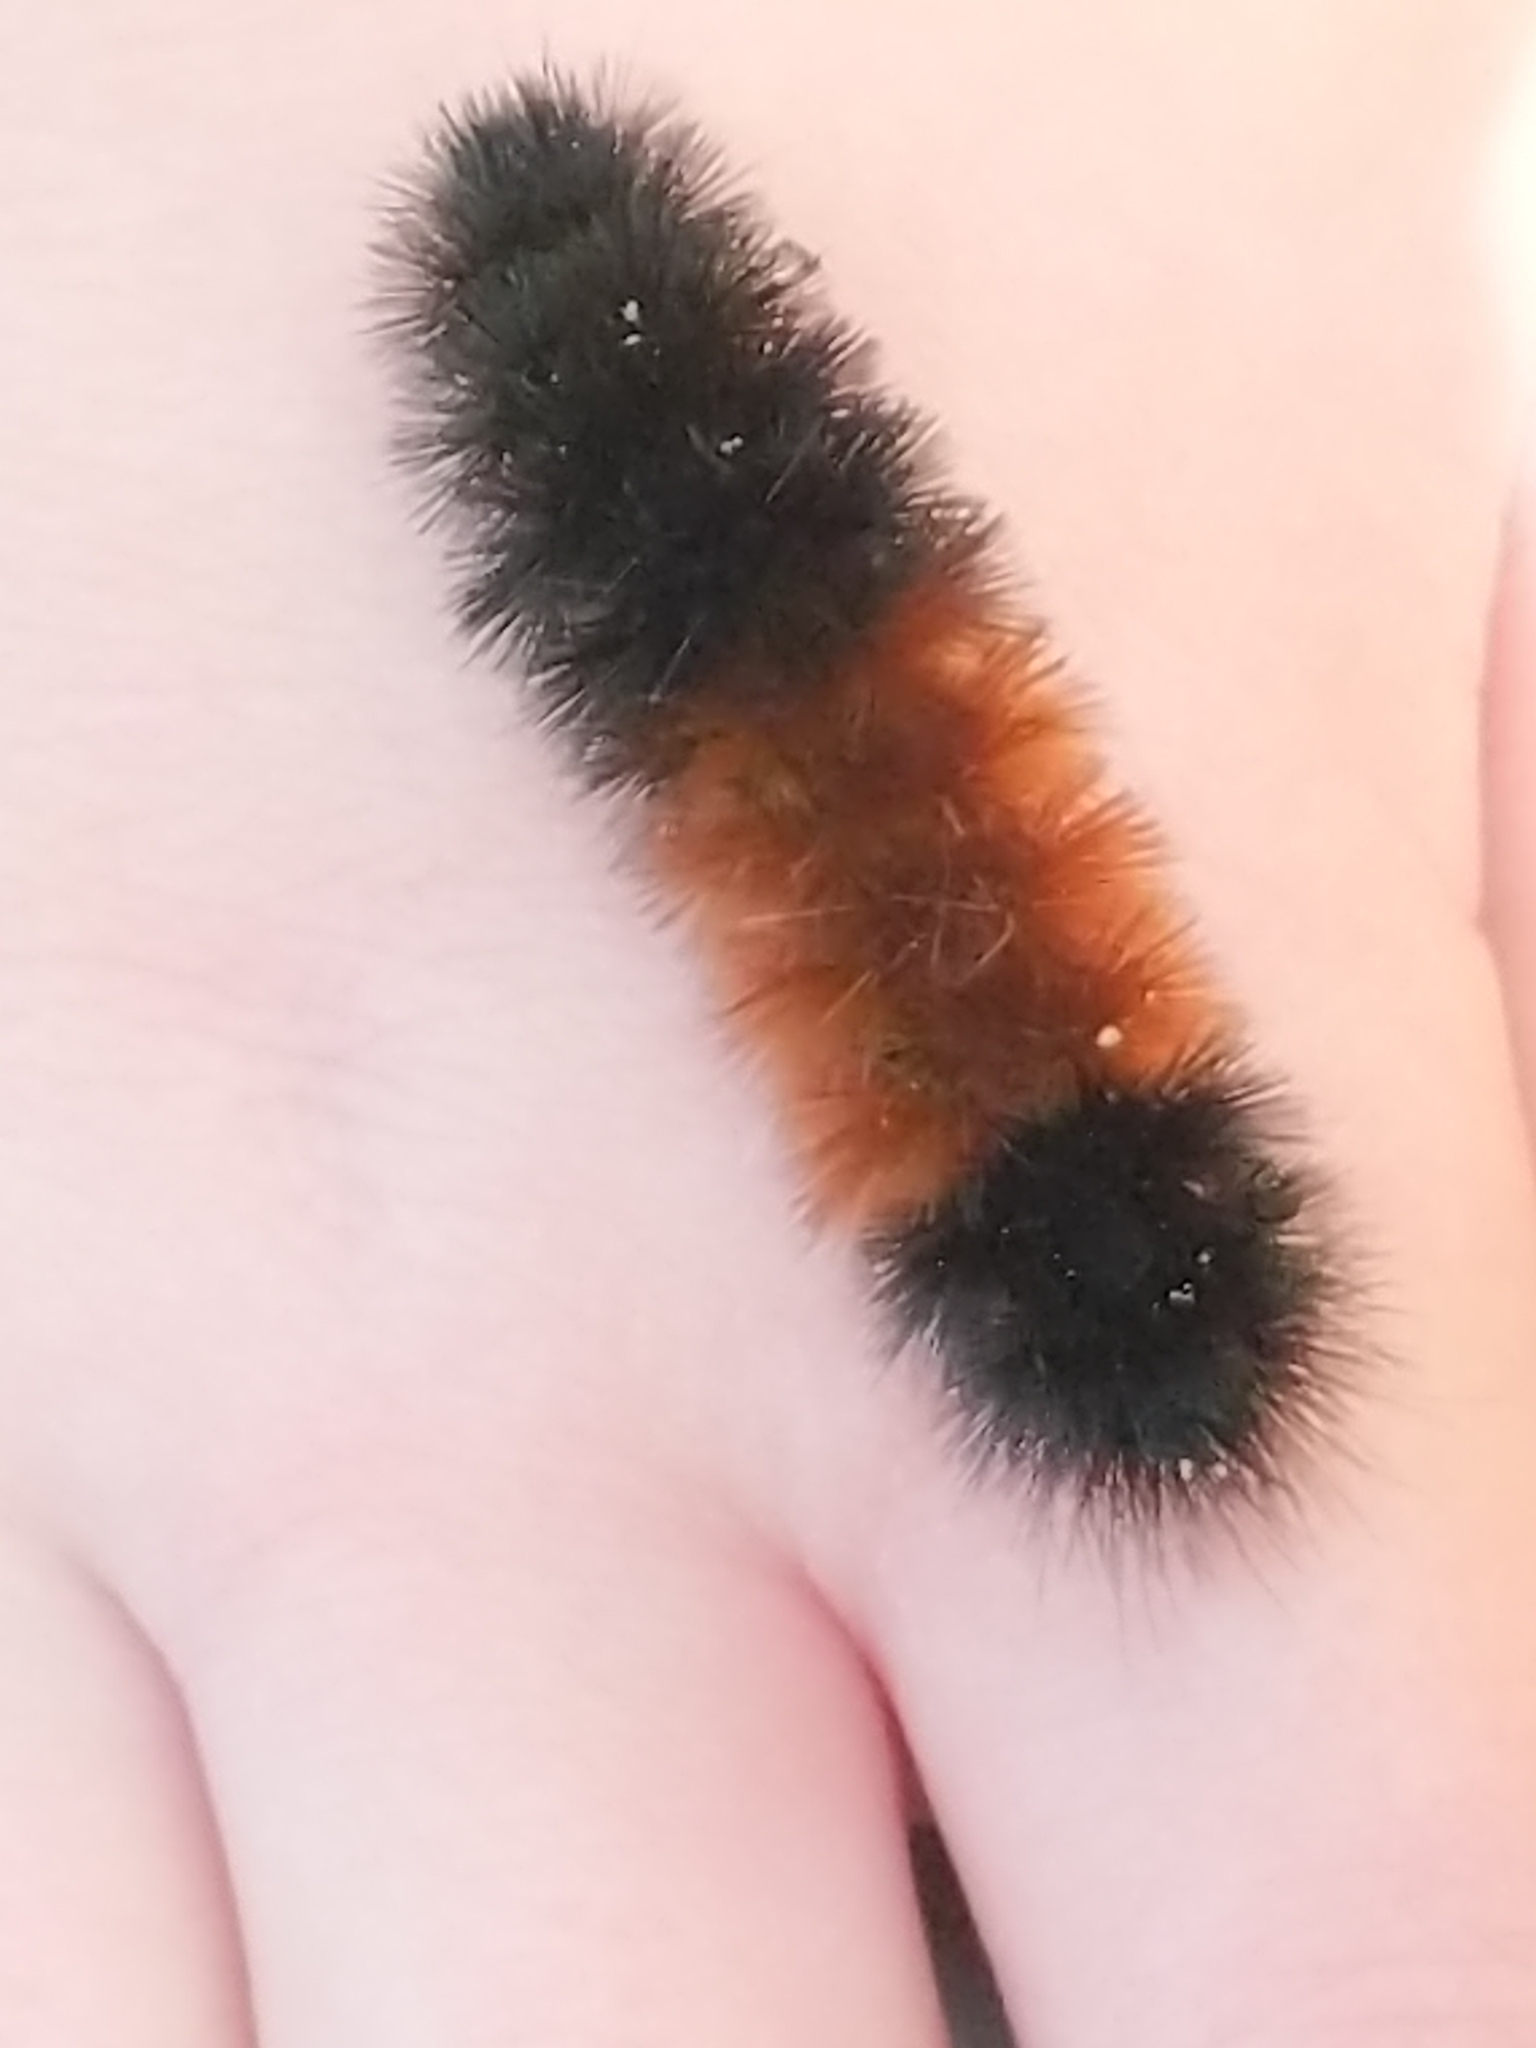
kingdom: Animalia
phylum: Arthropoda
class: Insecta
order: Lepidoptera
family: Erebidae
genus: Pyrrharctia
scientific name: Pyrrharctia isabella
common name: Isabella tiger moth
